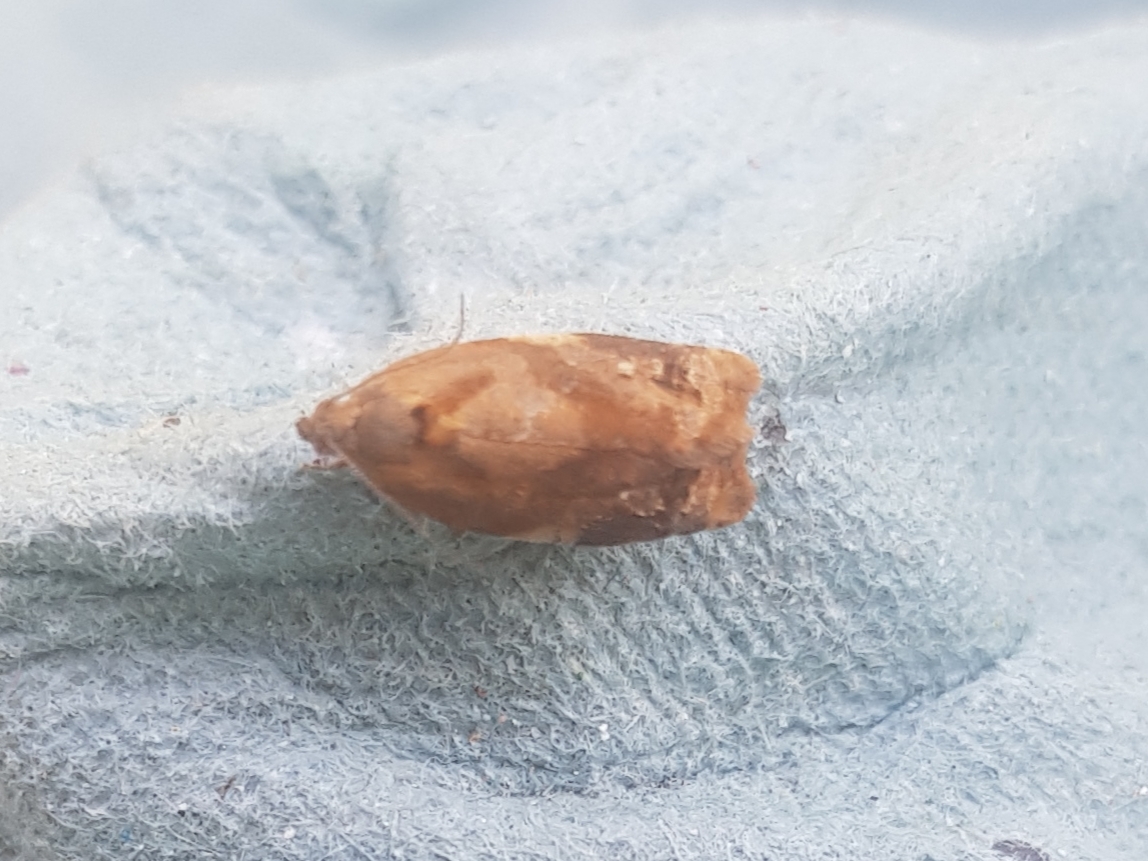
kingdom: Animalia
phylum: Arthropoda
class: Insecta
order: Lepidoptera
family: Tortricidae
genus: Ditula
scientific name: Ditula angustiorana
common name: Red-barred tortrix
